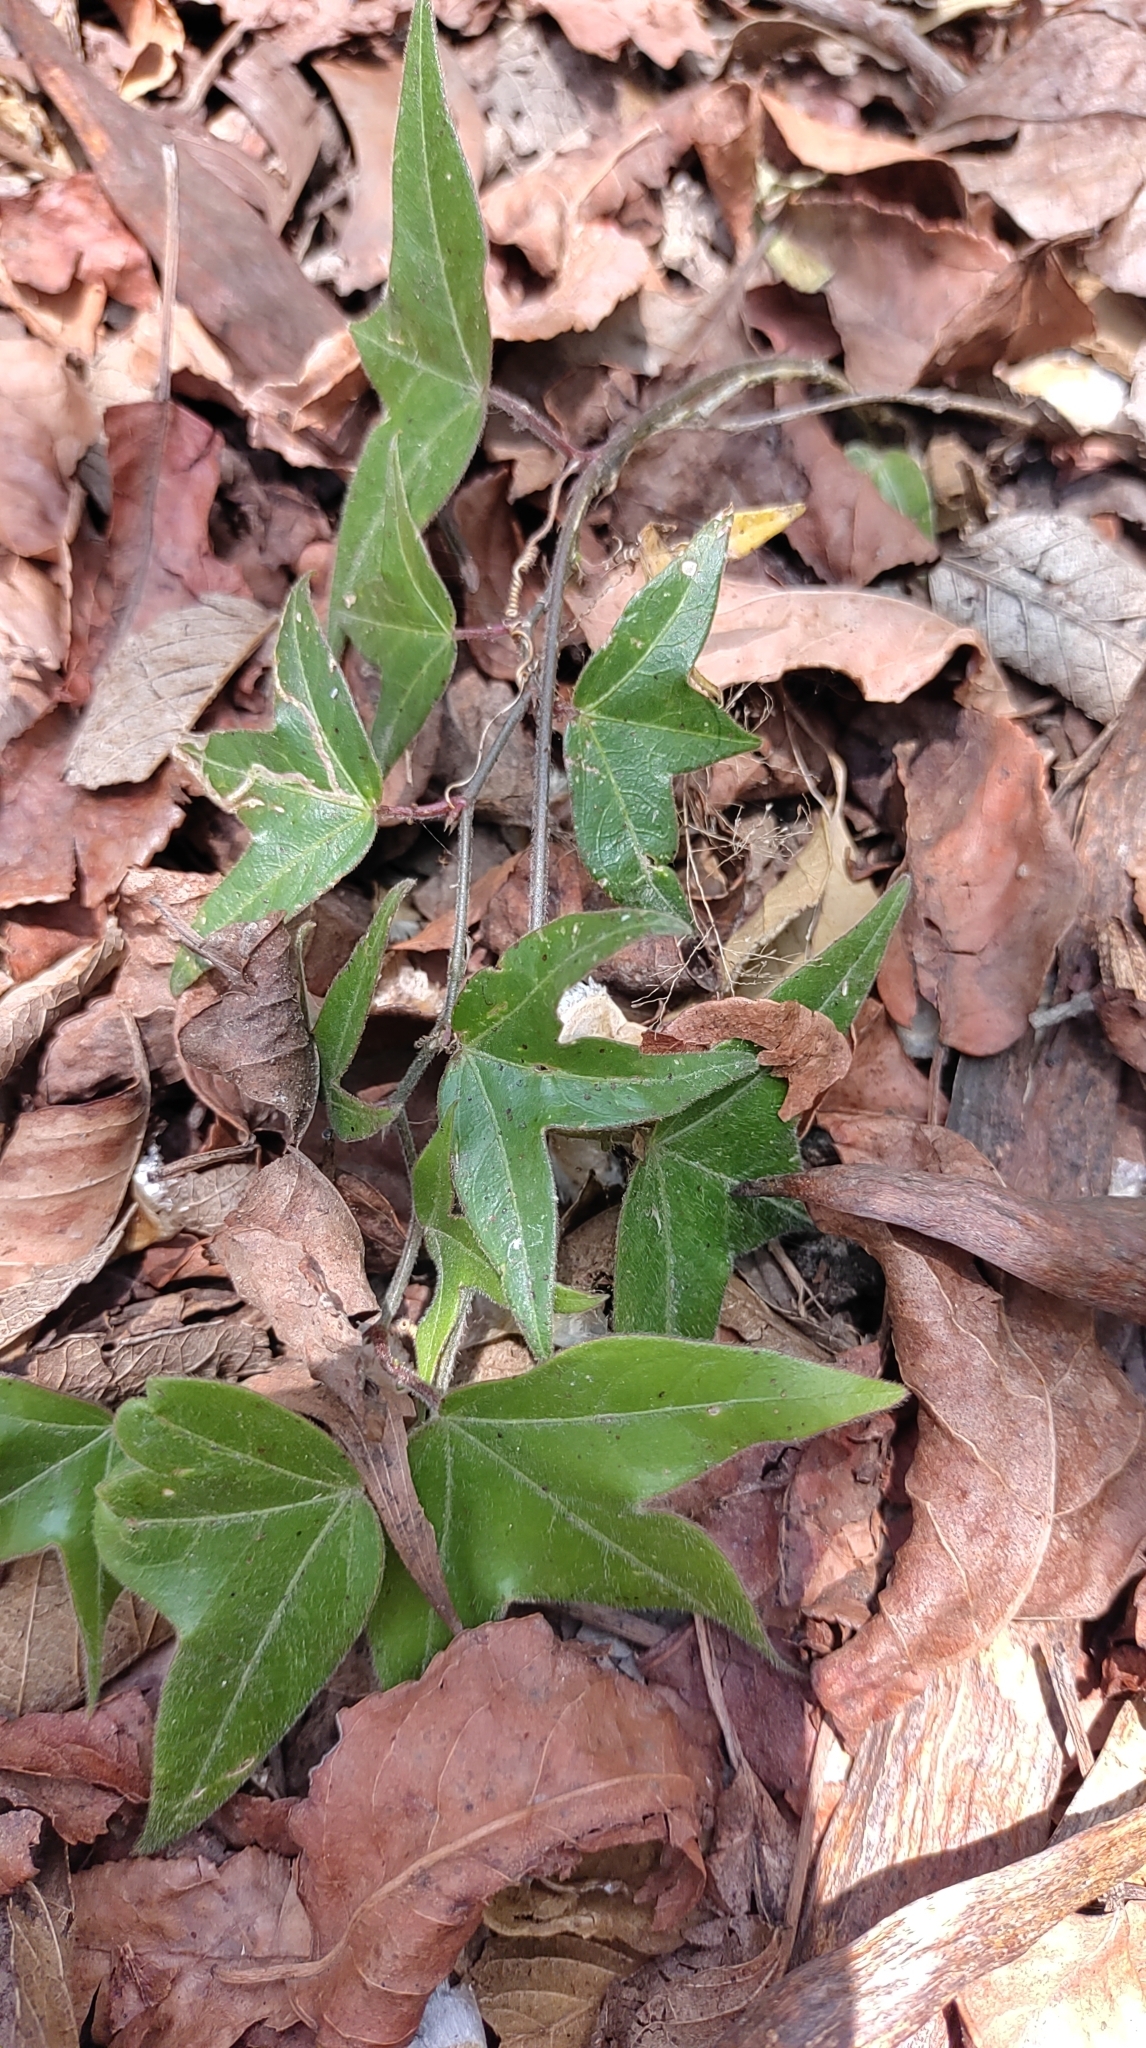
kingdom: Plantae
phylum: Tracheophyta
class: Magnoliopsida
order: Malpighiales
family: Passifloraceae
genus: Passiflora
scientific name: Passiflora suberosa
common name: Wild passionfruit
